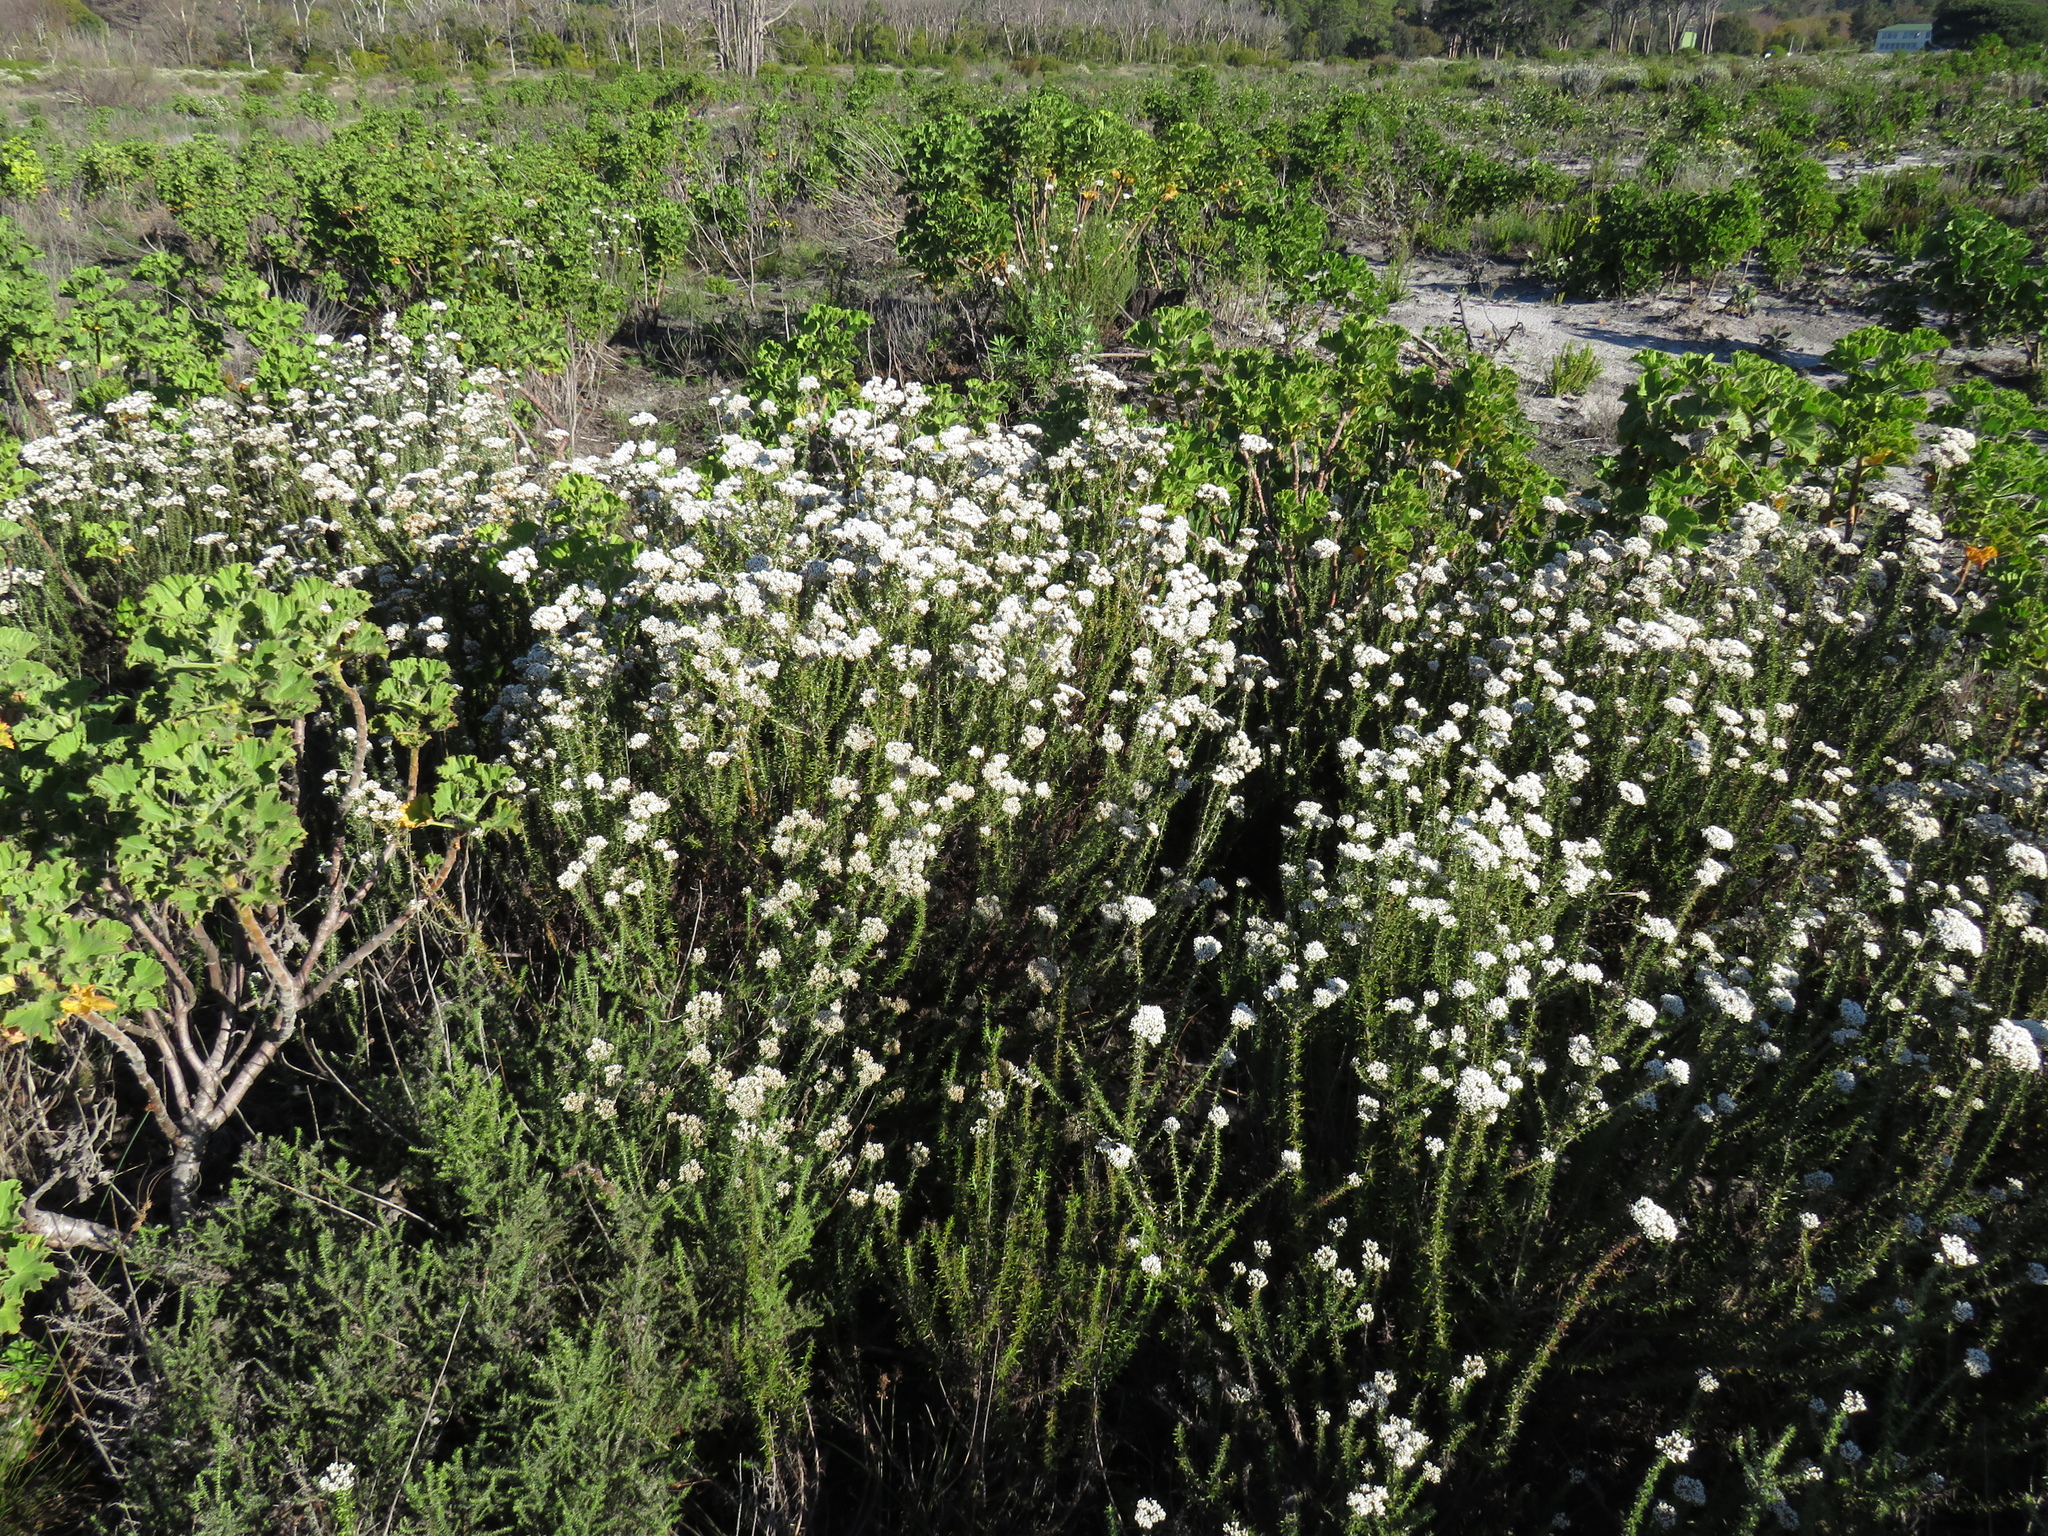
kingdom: Plantae
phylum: Tracheophyta
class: Magnoliopsida
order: Asterales
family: Asteraceae
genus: Metalasia
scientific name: Metalasia densa
